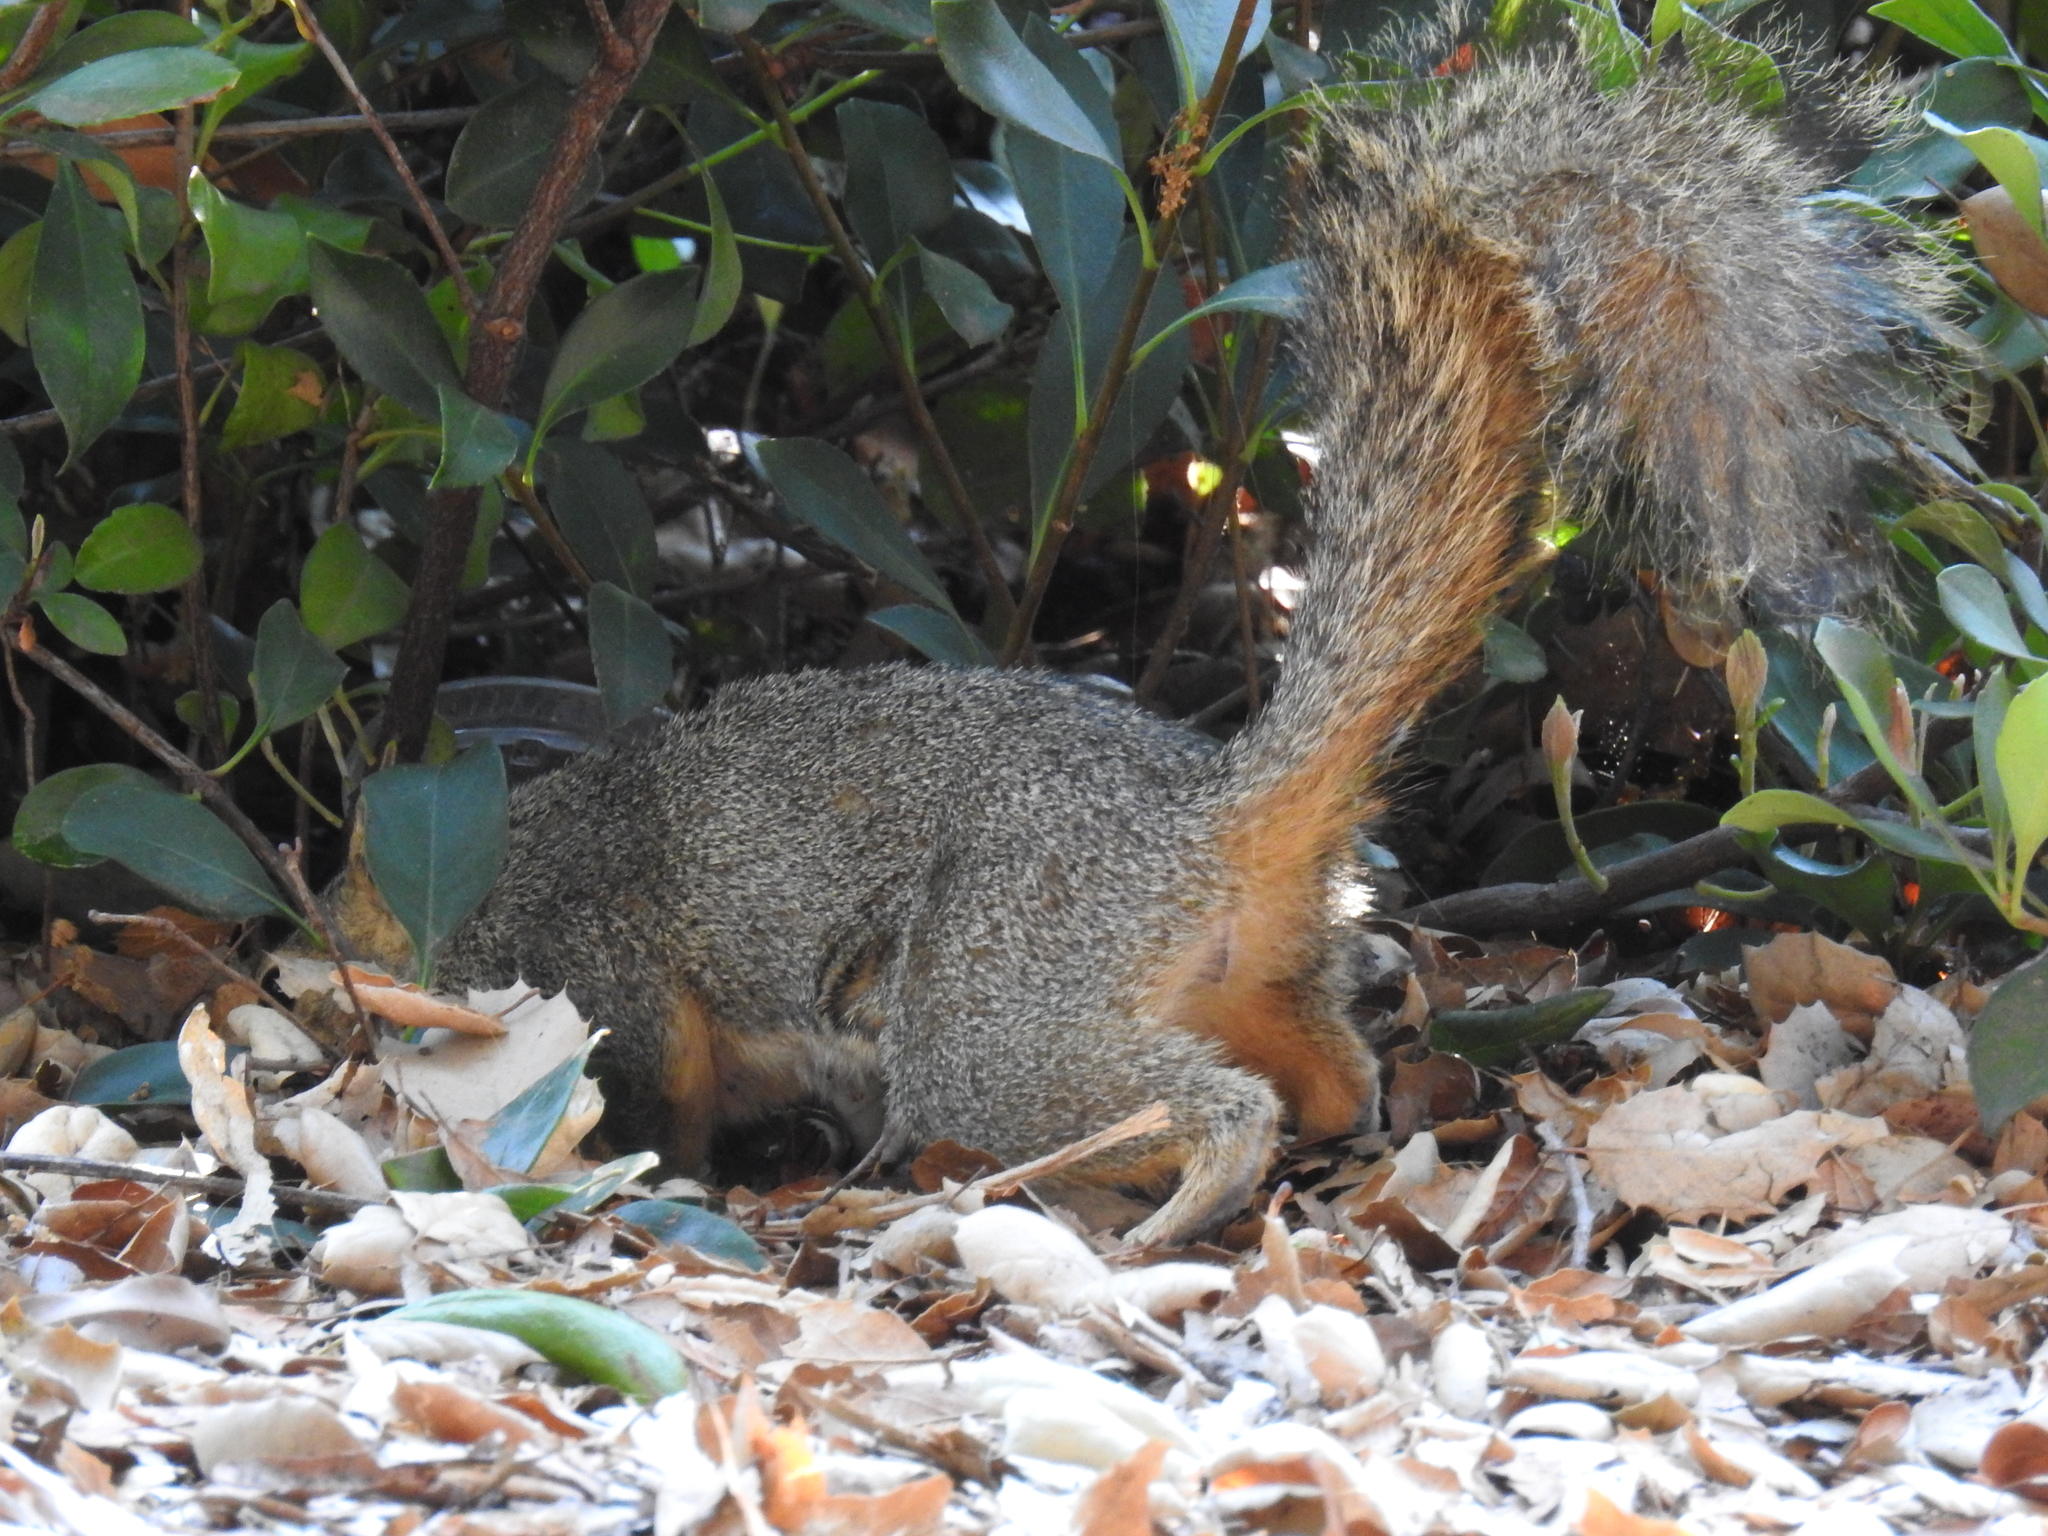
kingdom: Animalia
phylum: Chordata
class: Mammalia
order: Rodentia
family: Sciuridae
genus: Sciurus
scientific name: Sciurus niger
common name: Fox squirrel
